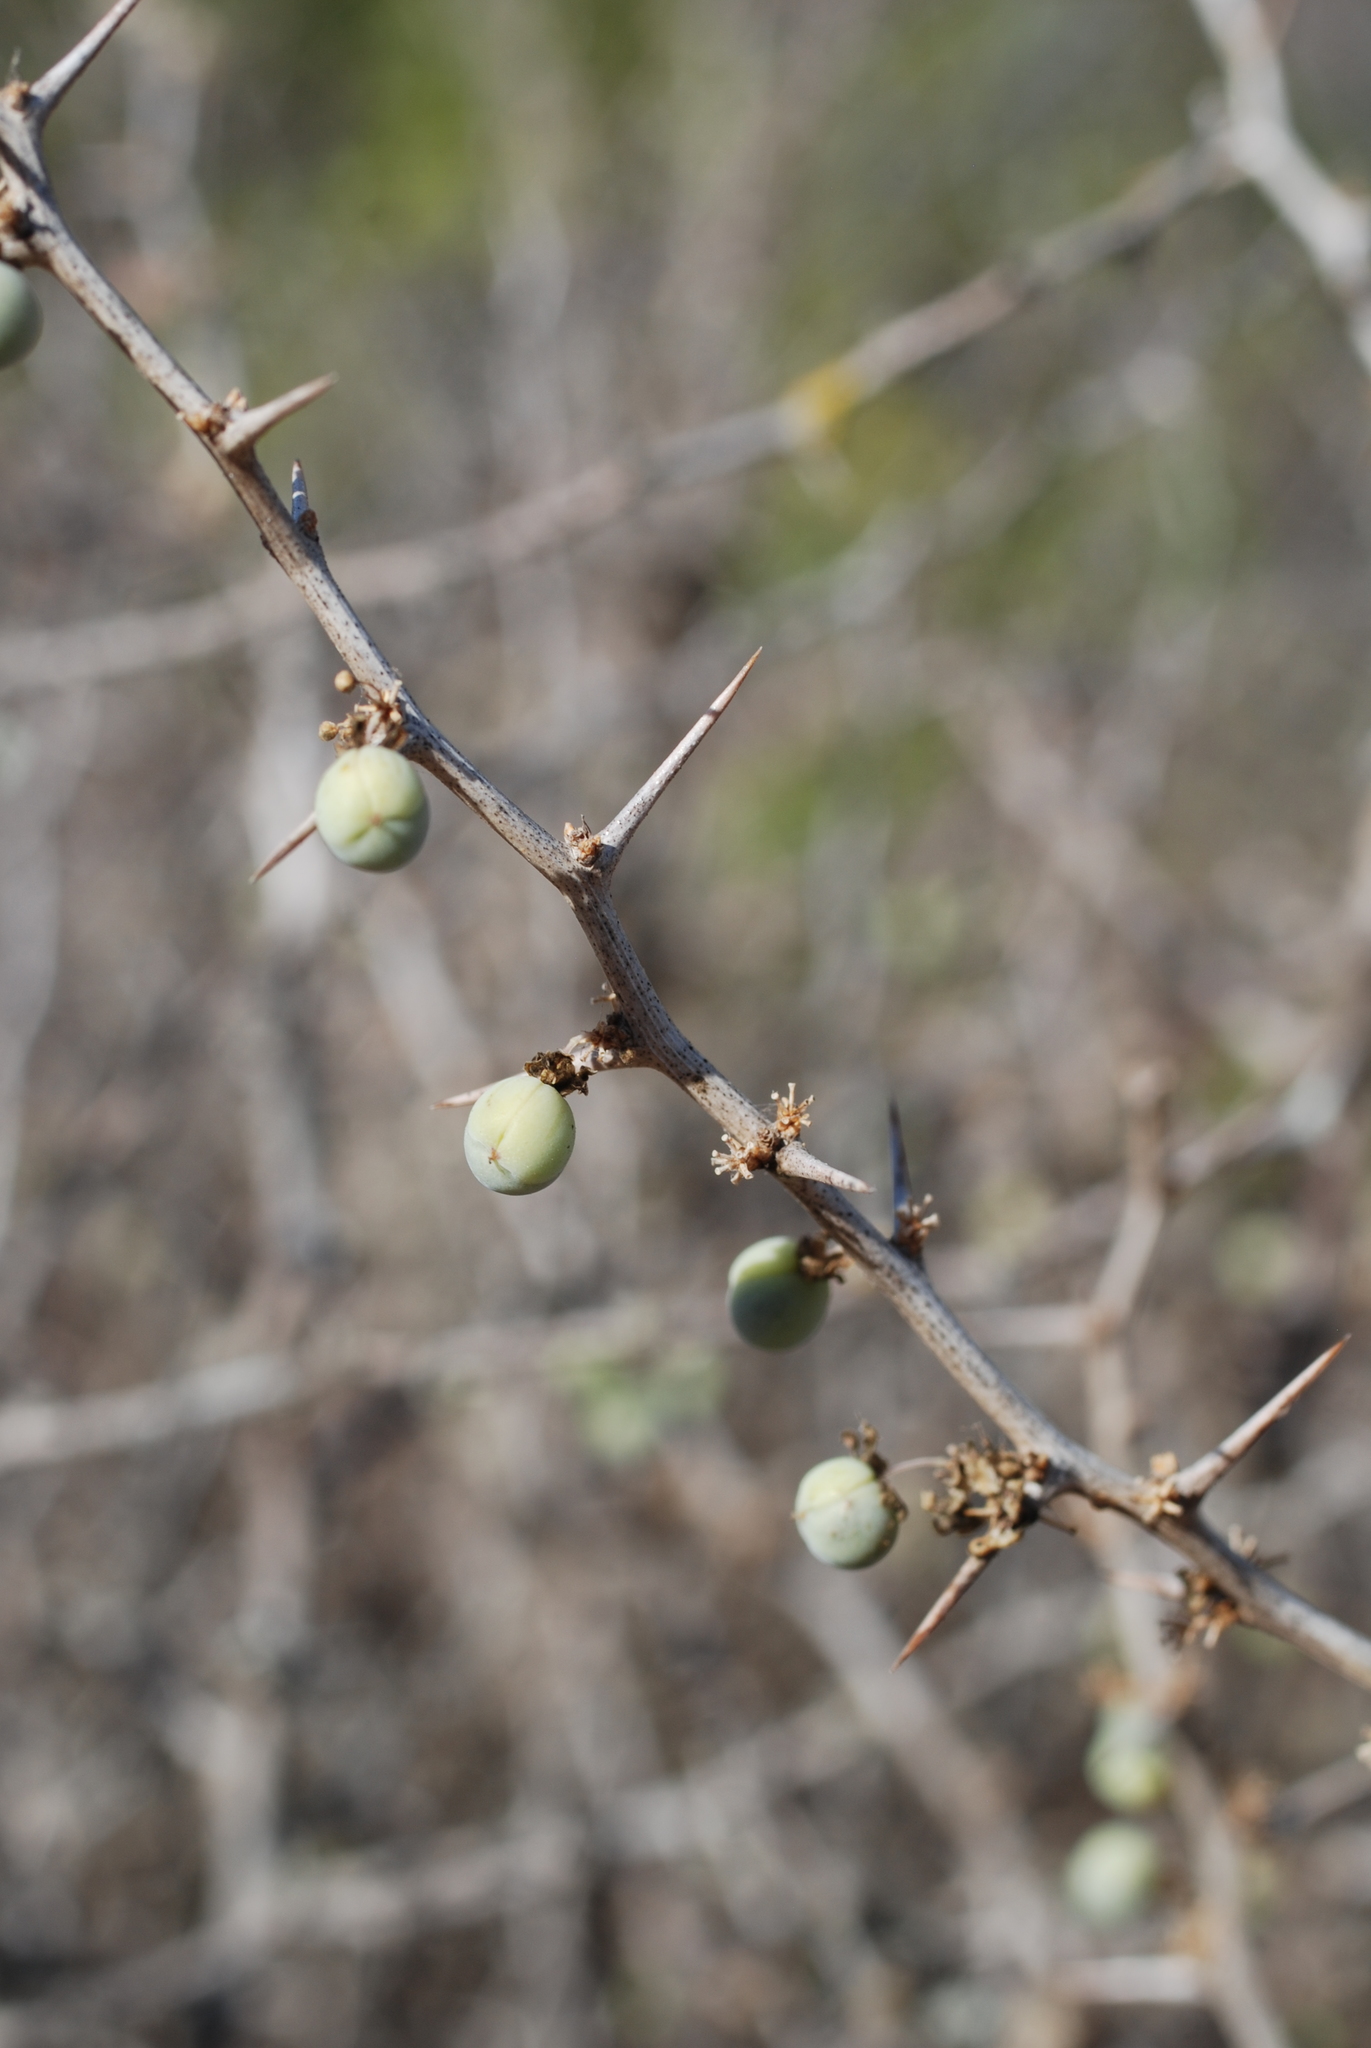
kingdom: Plantae
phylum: Tracheophyta
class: Liliopsida
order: Asparagales
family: Asparagaceae
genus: Asparagus
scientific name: Asparagus albus
